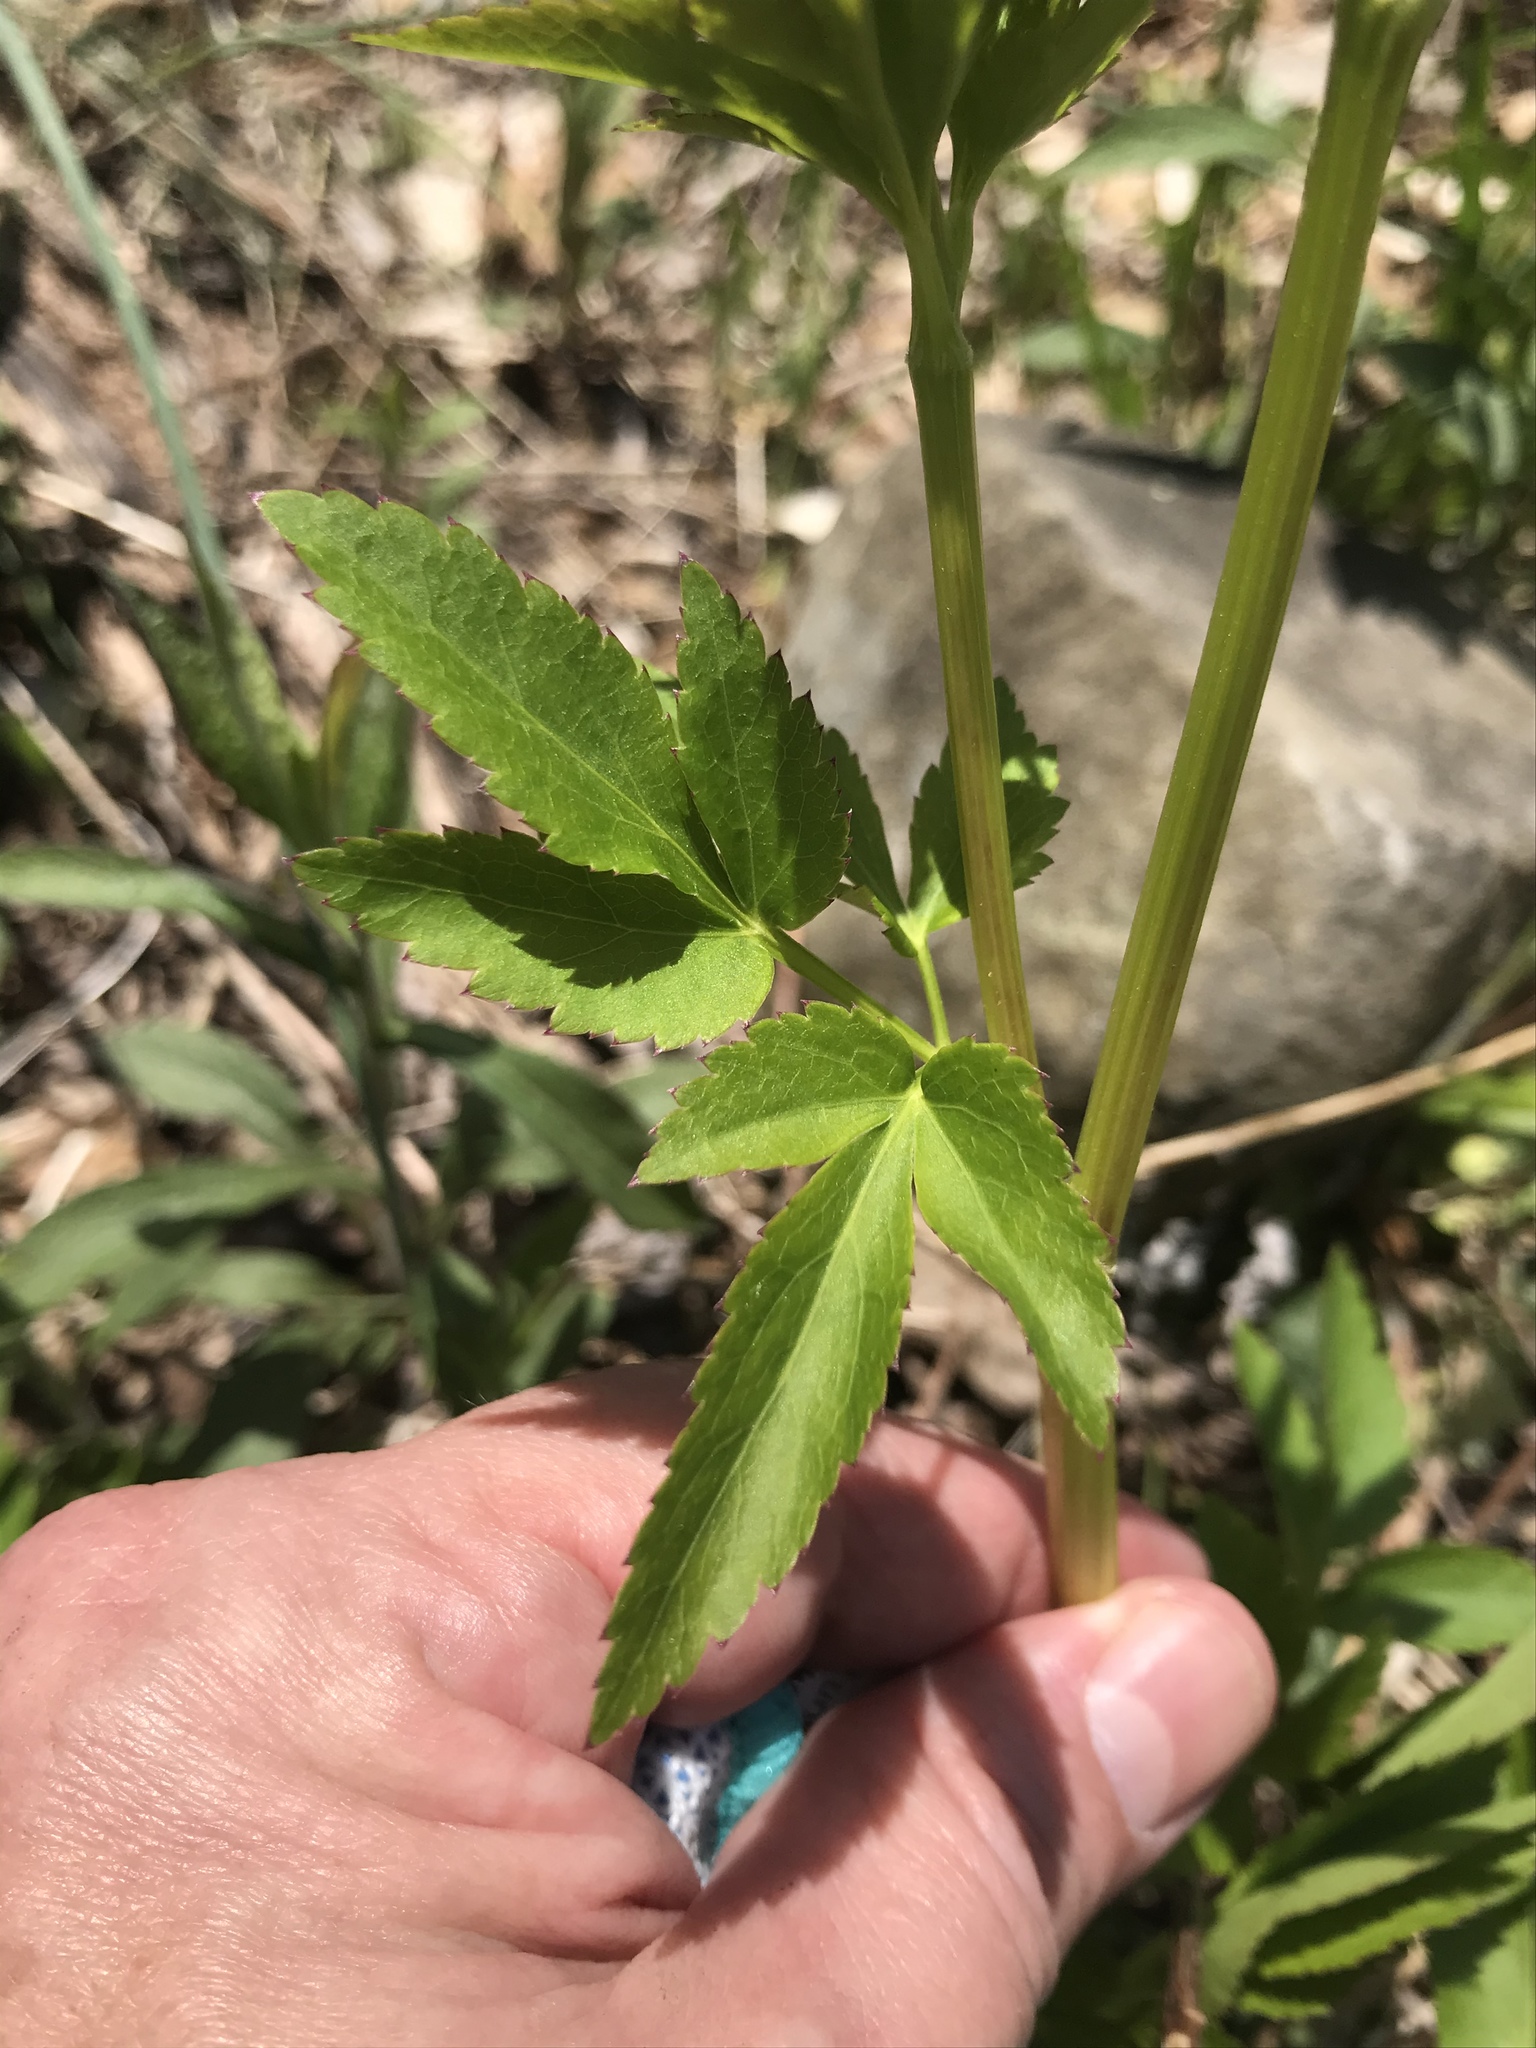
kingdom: Plantae
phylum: Tracheophyta
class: Magnoliopsida
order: Apiales
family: Apiaceae
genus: Zizia
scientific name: Zizia aurea
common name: Golden alexanders
